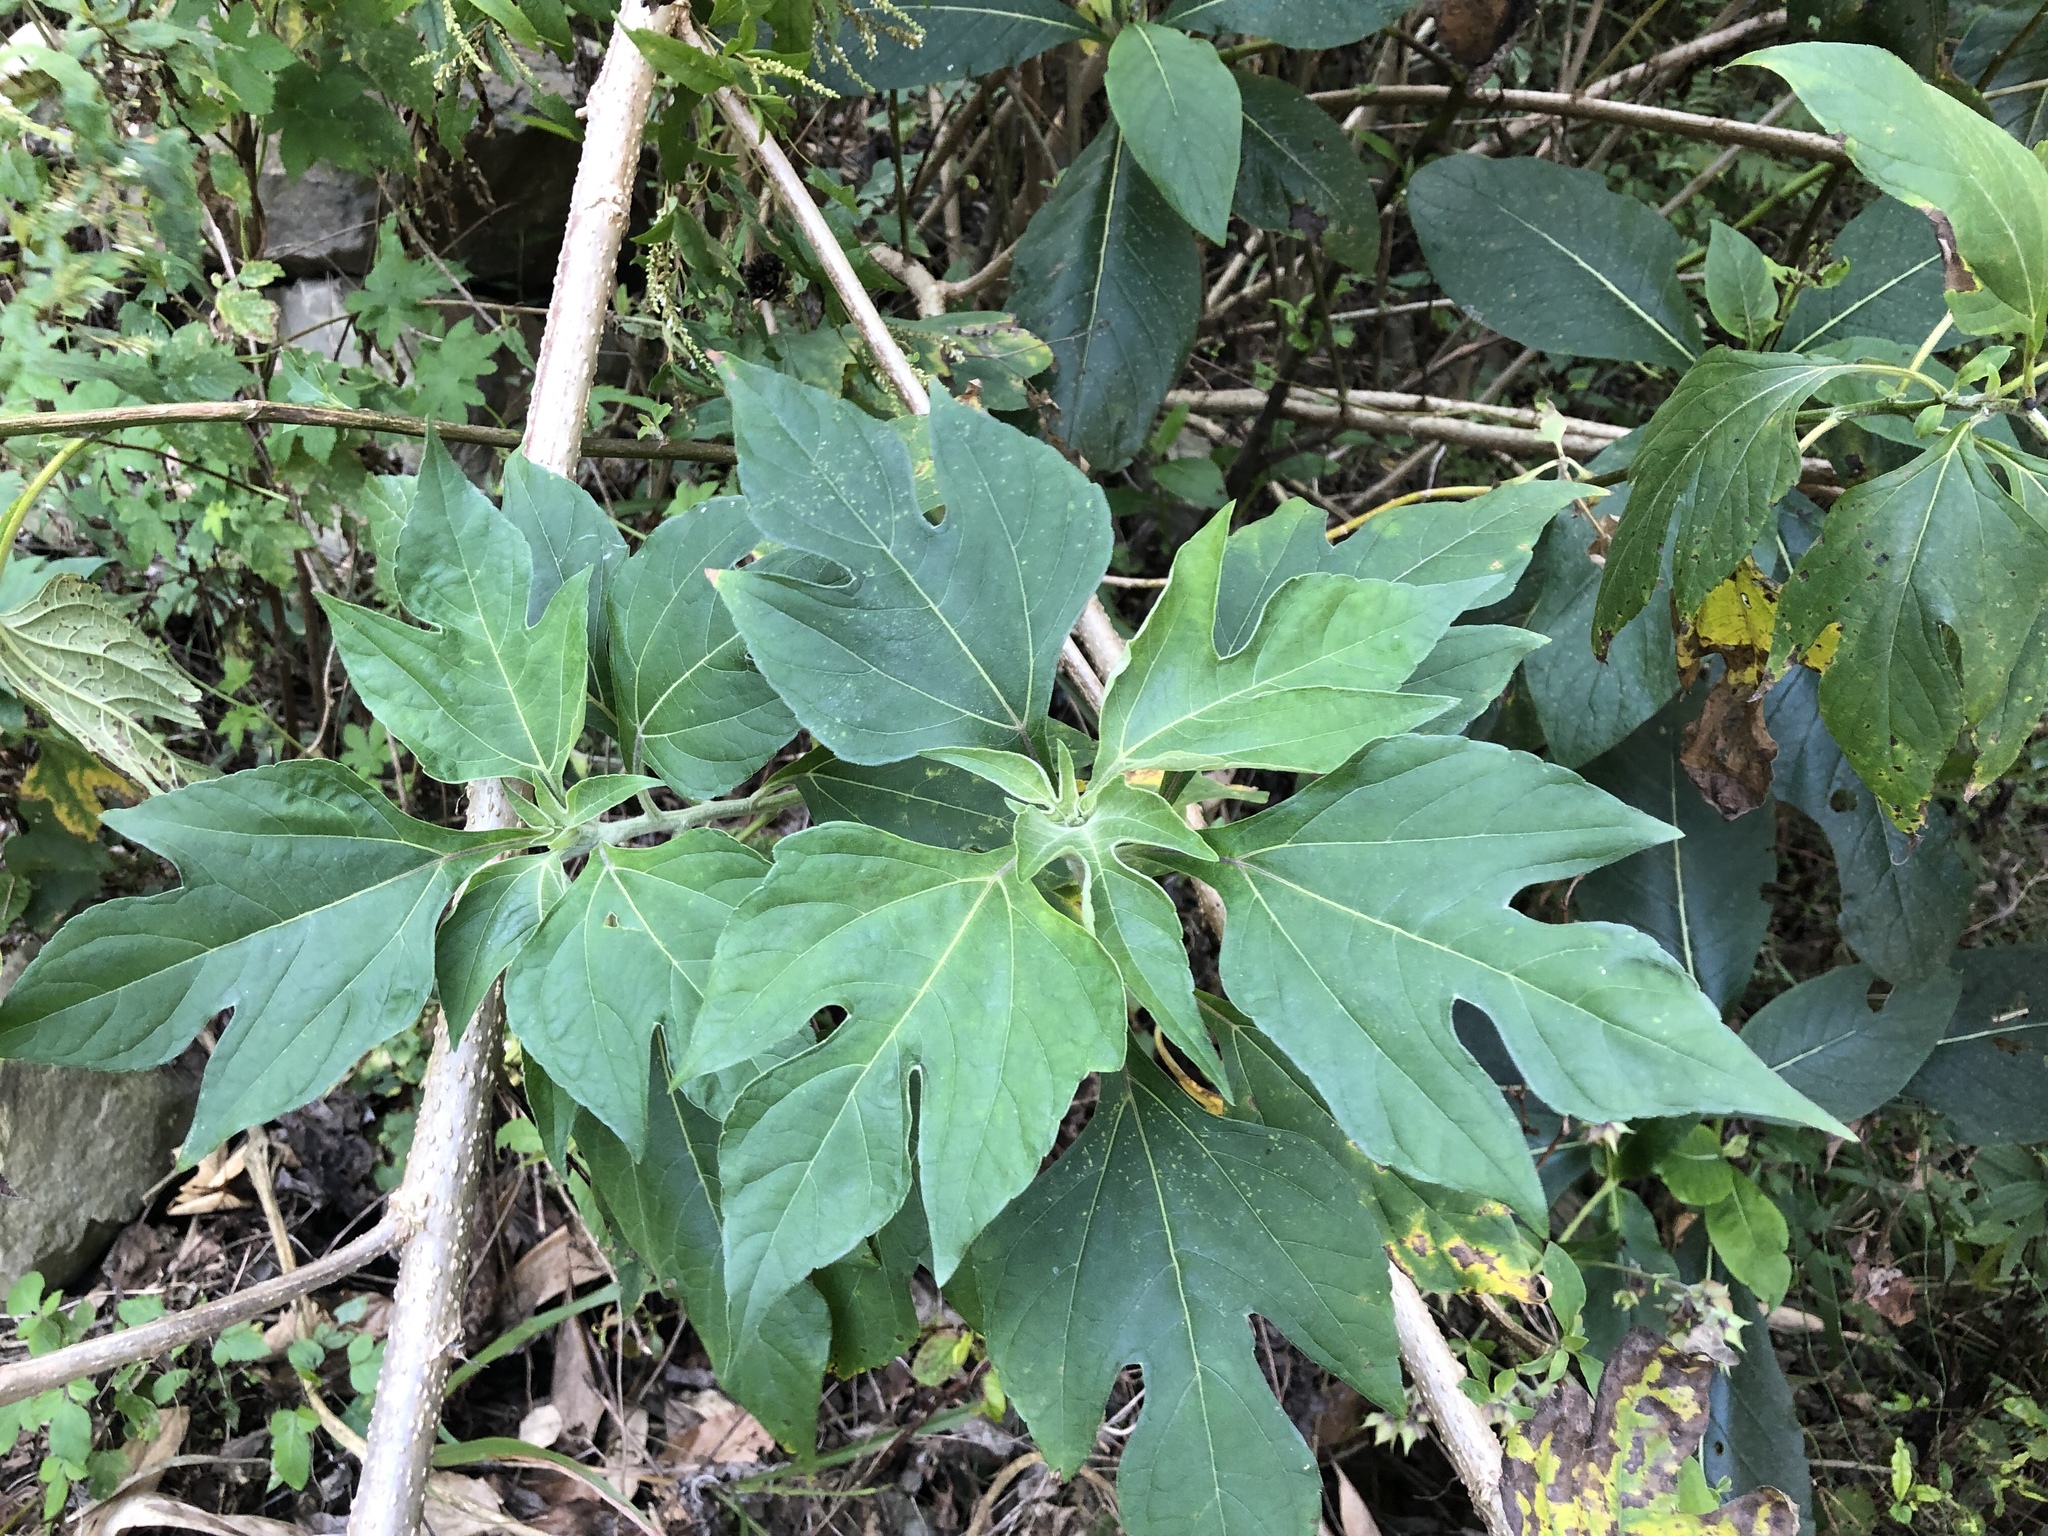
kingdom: Plantae
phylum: Tracheophyta
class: Magnoliopsida
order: Asterales
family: Asteraceae
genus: Tithonia
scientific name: Tithonia diversifolia
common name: Tree marigold
